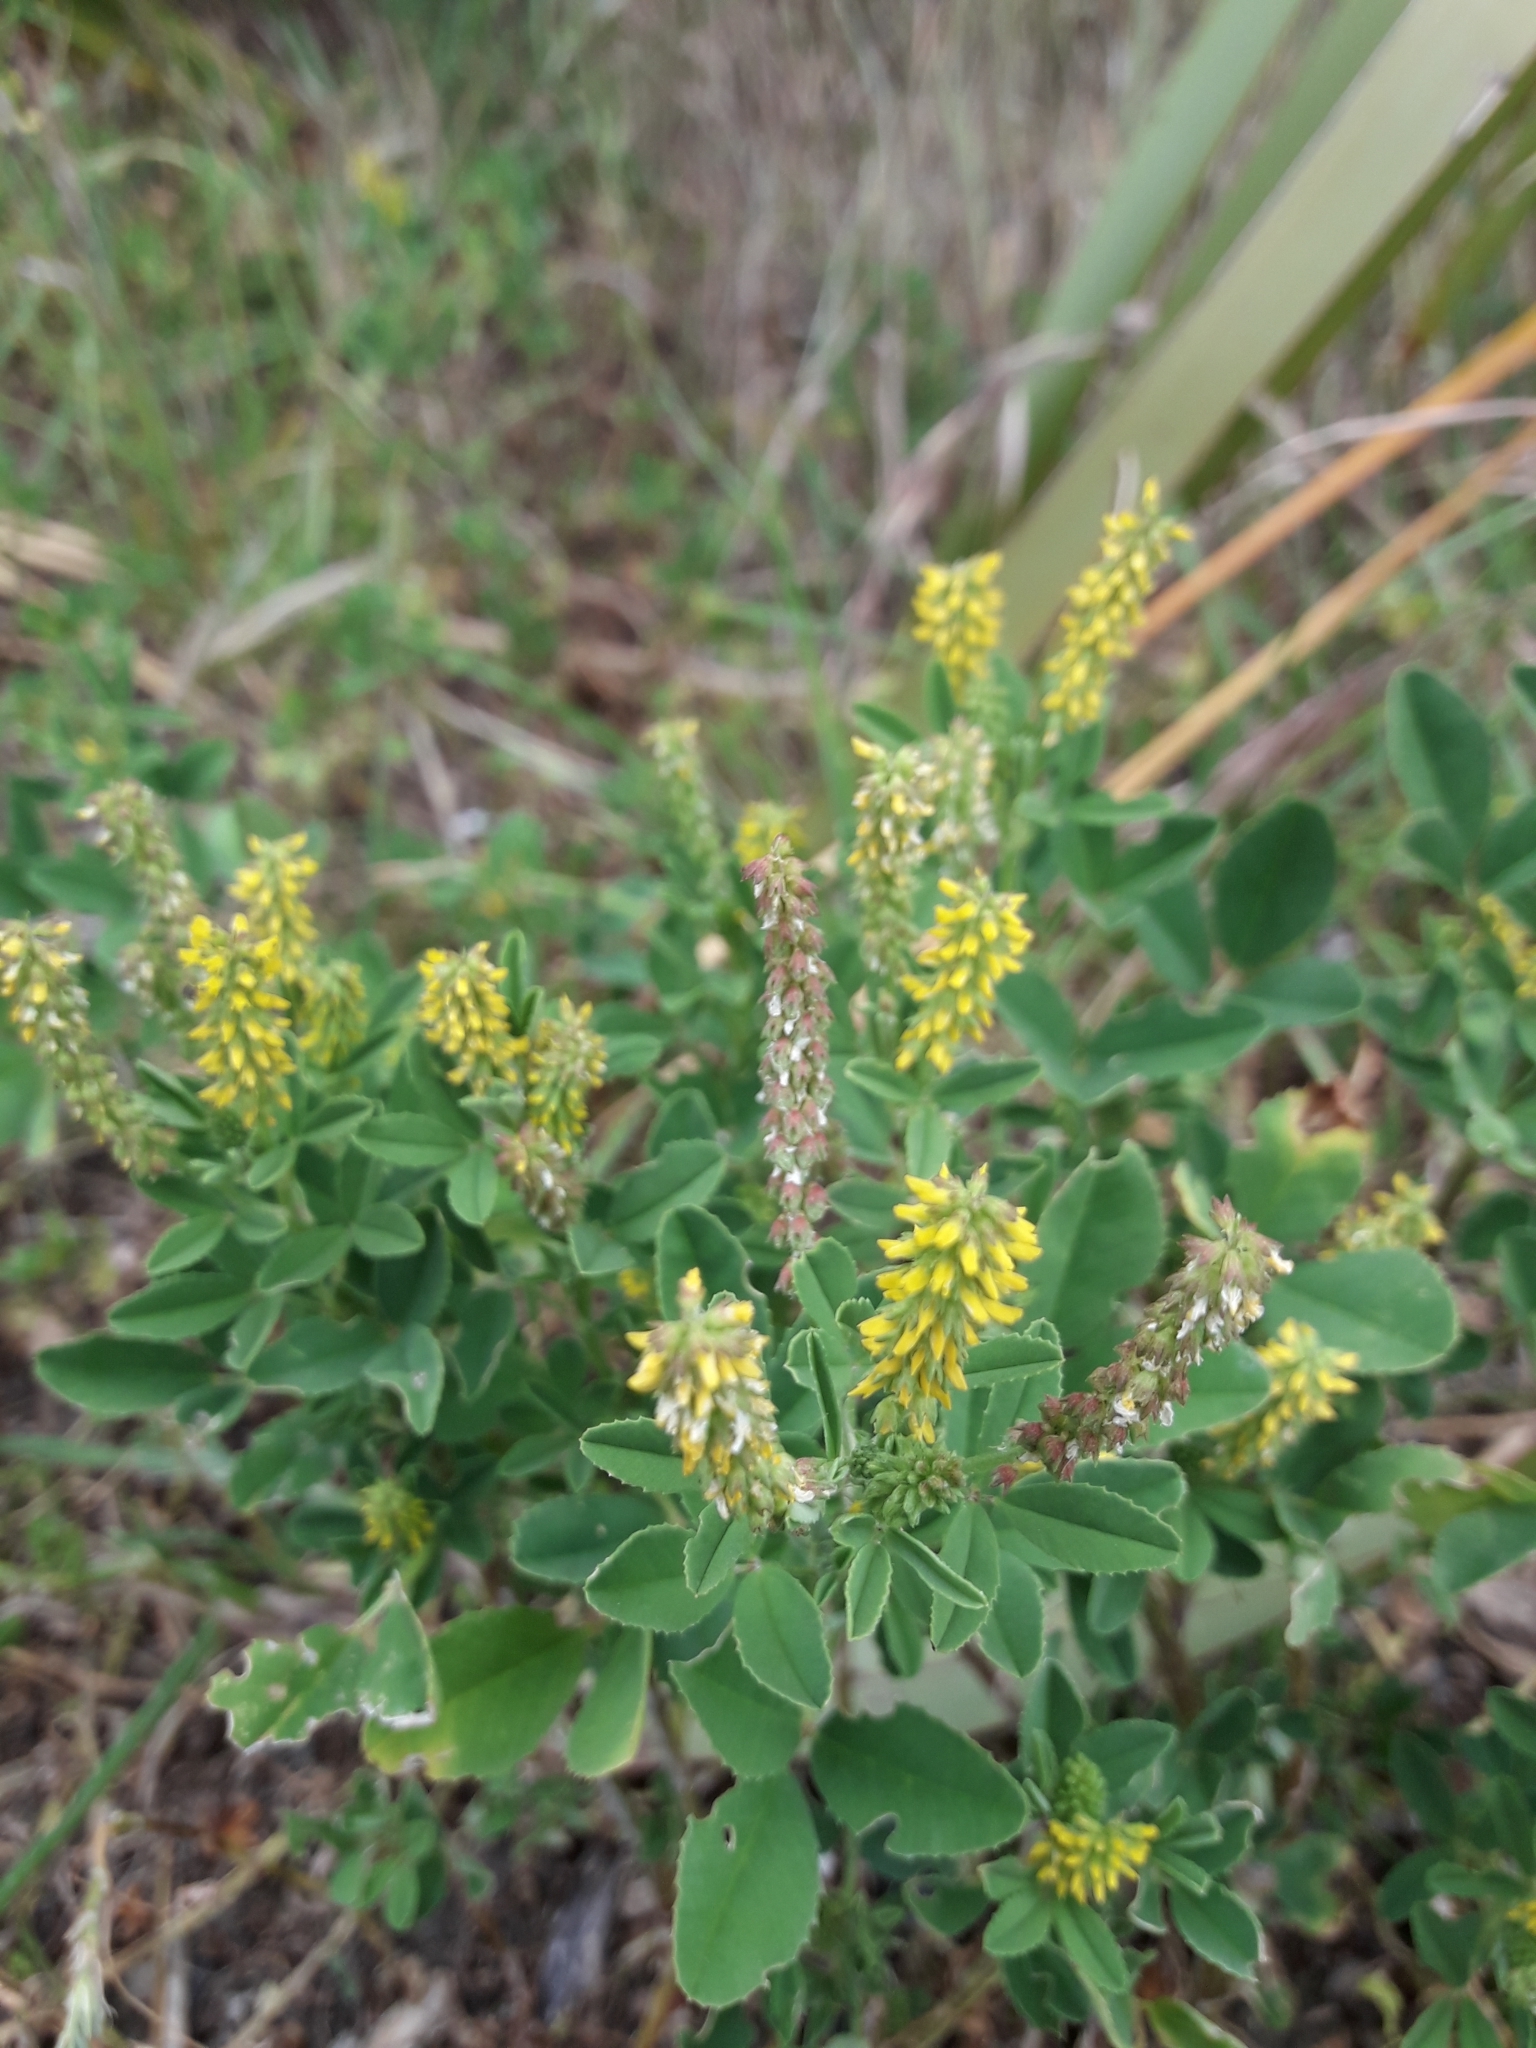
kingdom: Plantae
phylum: Tracheophyta
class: Magnoliopsida
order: Fabales
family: Fabaceae
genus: Melilotus
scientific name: Melilotus indicus
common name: Small melilot
